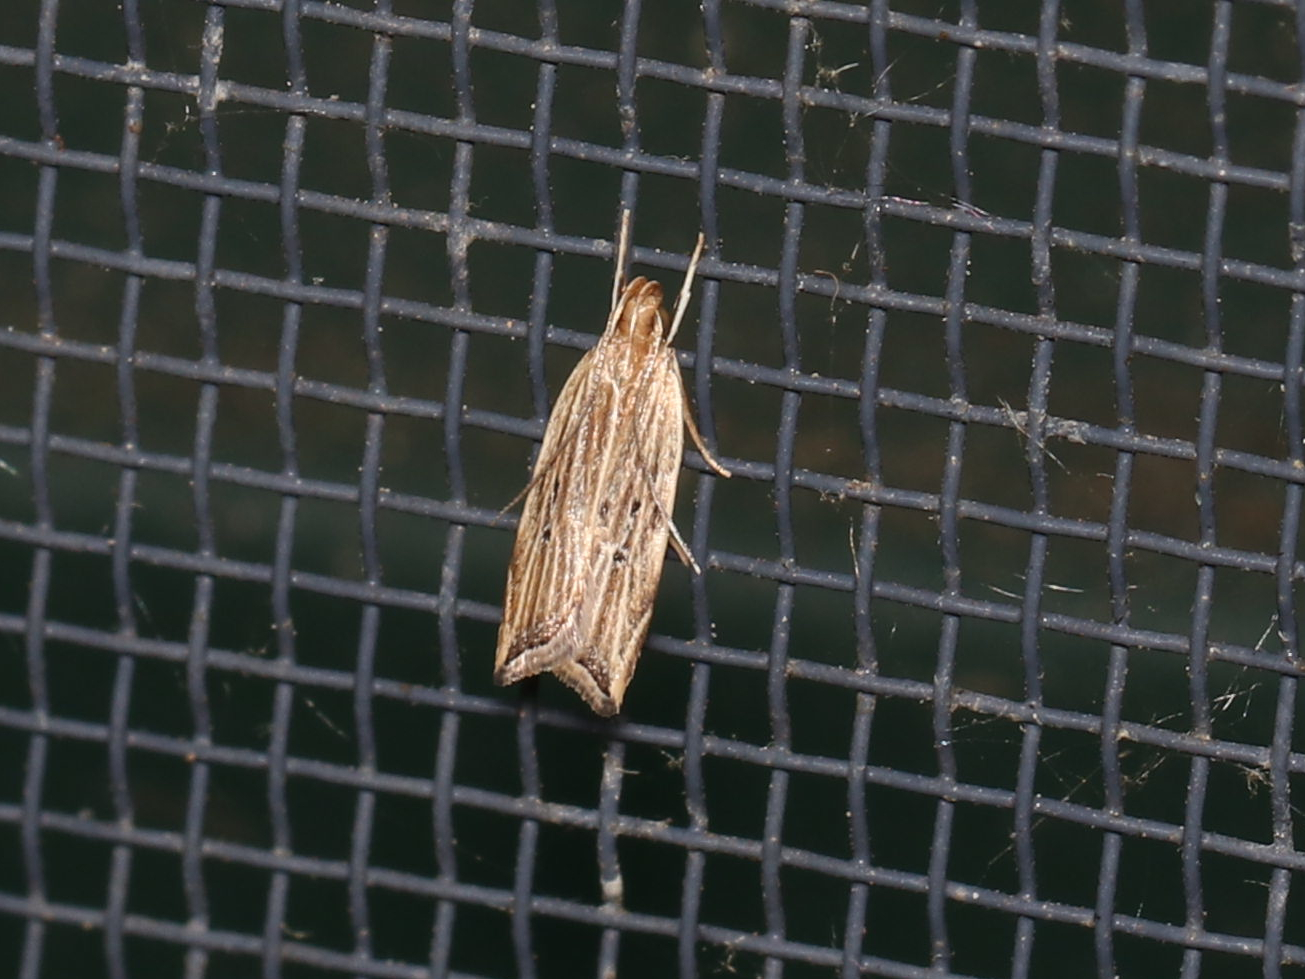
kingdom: Animalia
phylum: Arthropoda
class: Insecta
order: Lepidoptera
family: Gelechiidae
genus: Helcystogramma
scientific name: Helcystogramma hystricella
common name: Lanceolate moth
